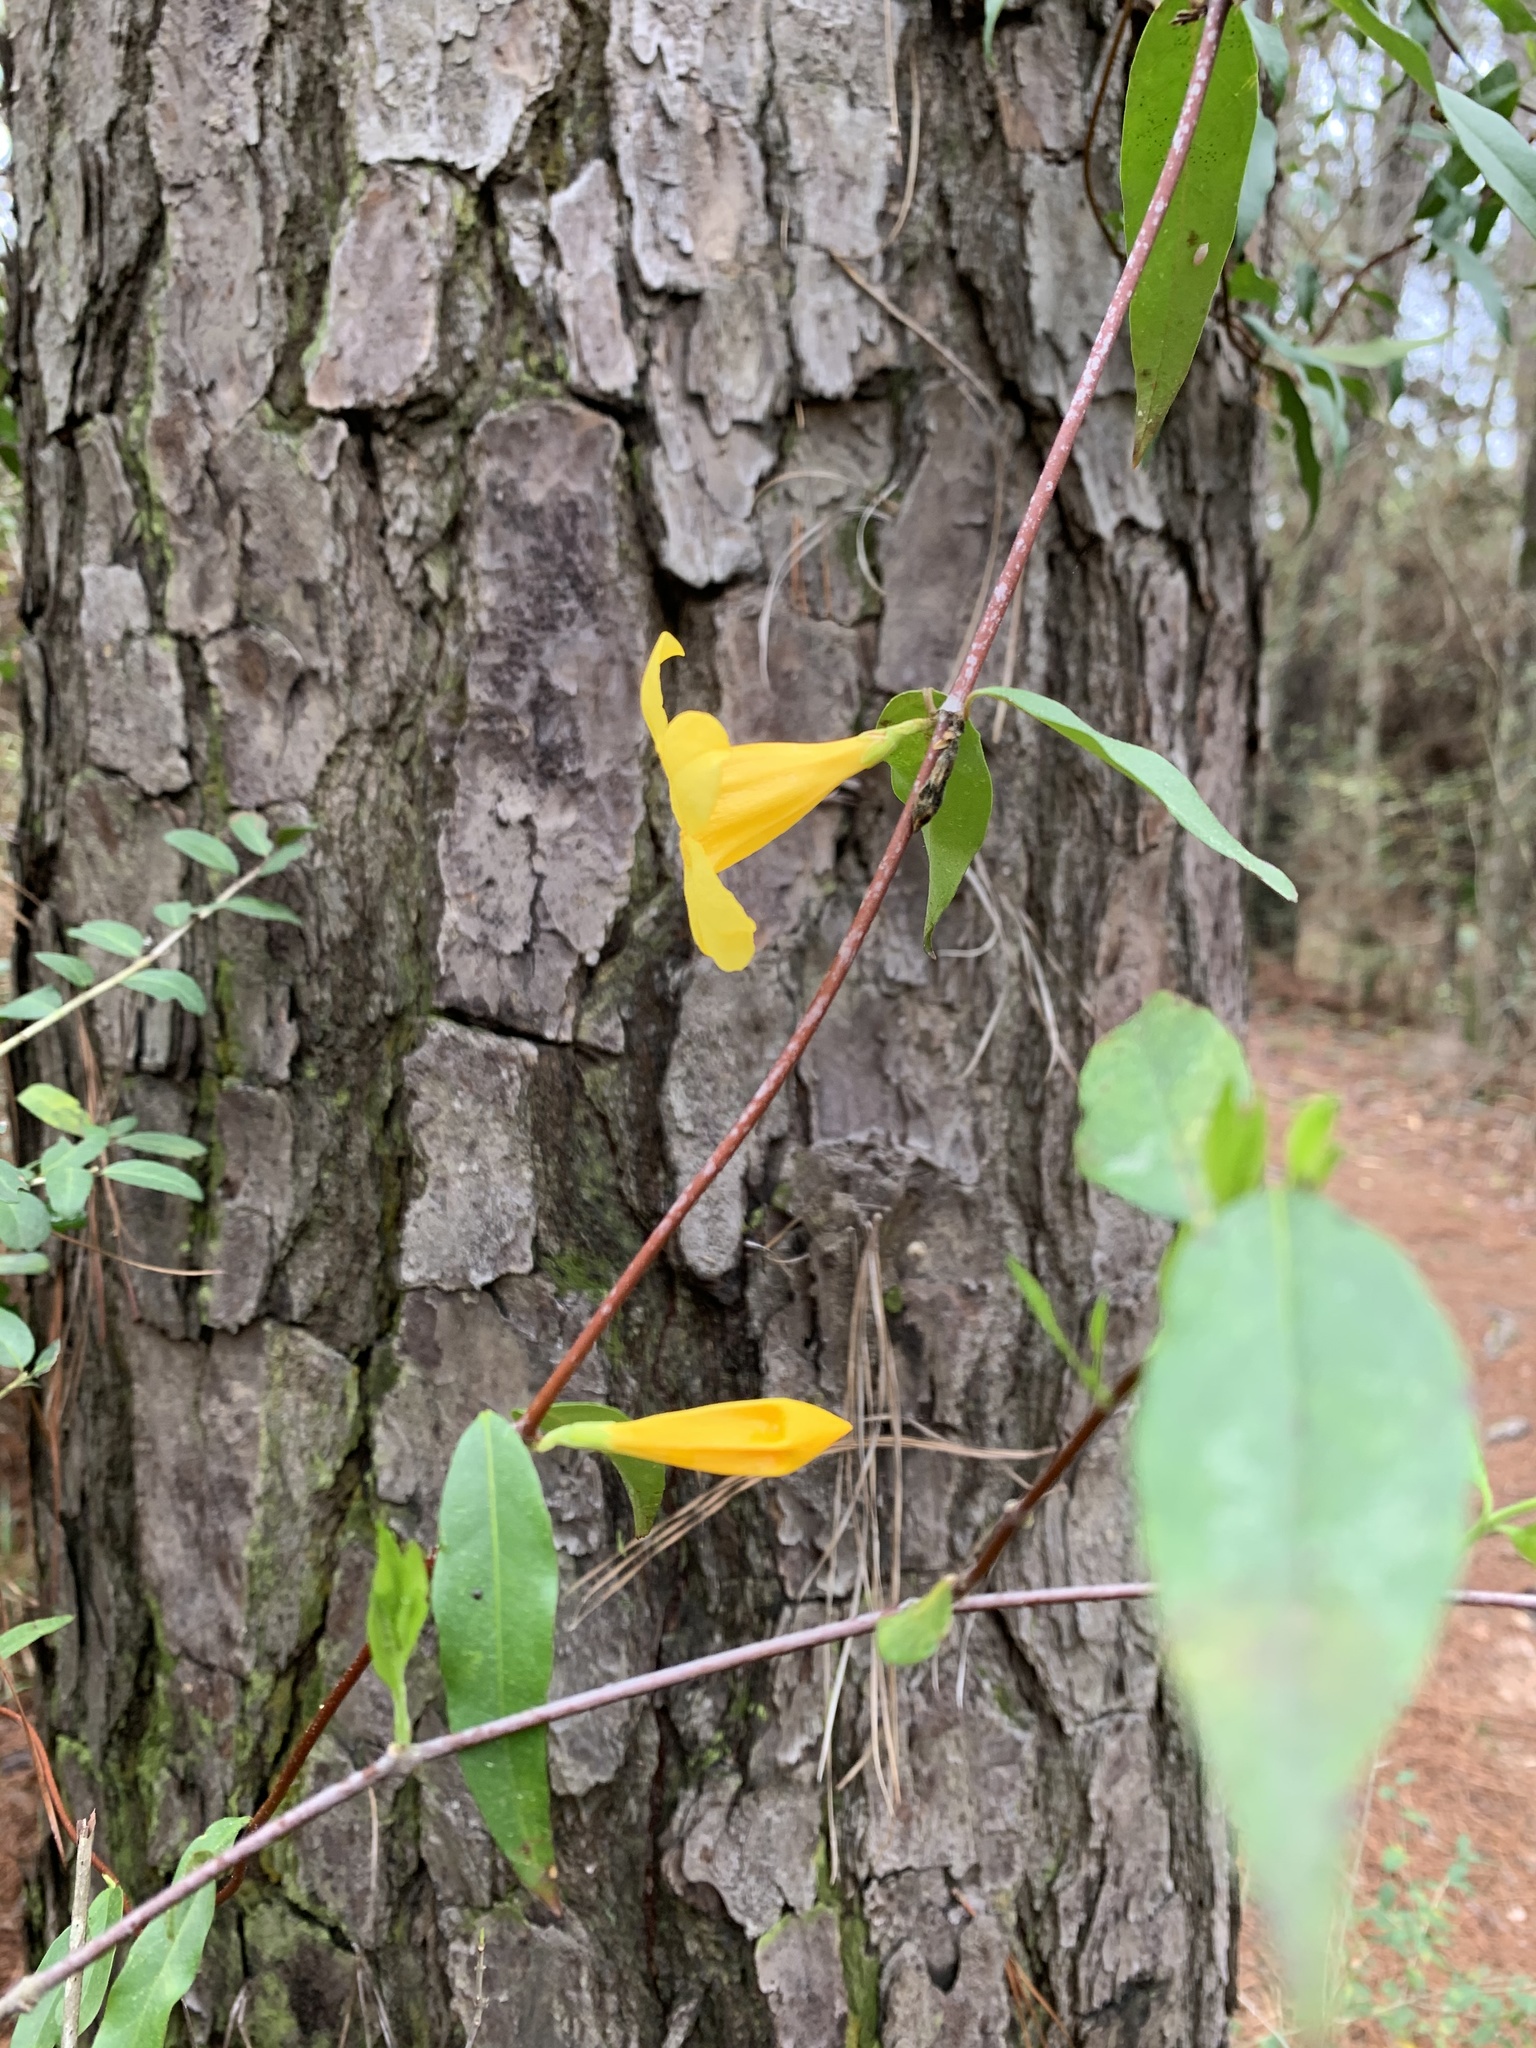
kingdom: Plantae
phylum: Tracheophyta
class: Magnoliopsida
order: Gentianales
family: Gelsemiaceae
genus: Gelsemium
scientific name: Gelsemium sempervirens
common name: Carolina-jasmine
